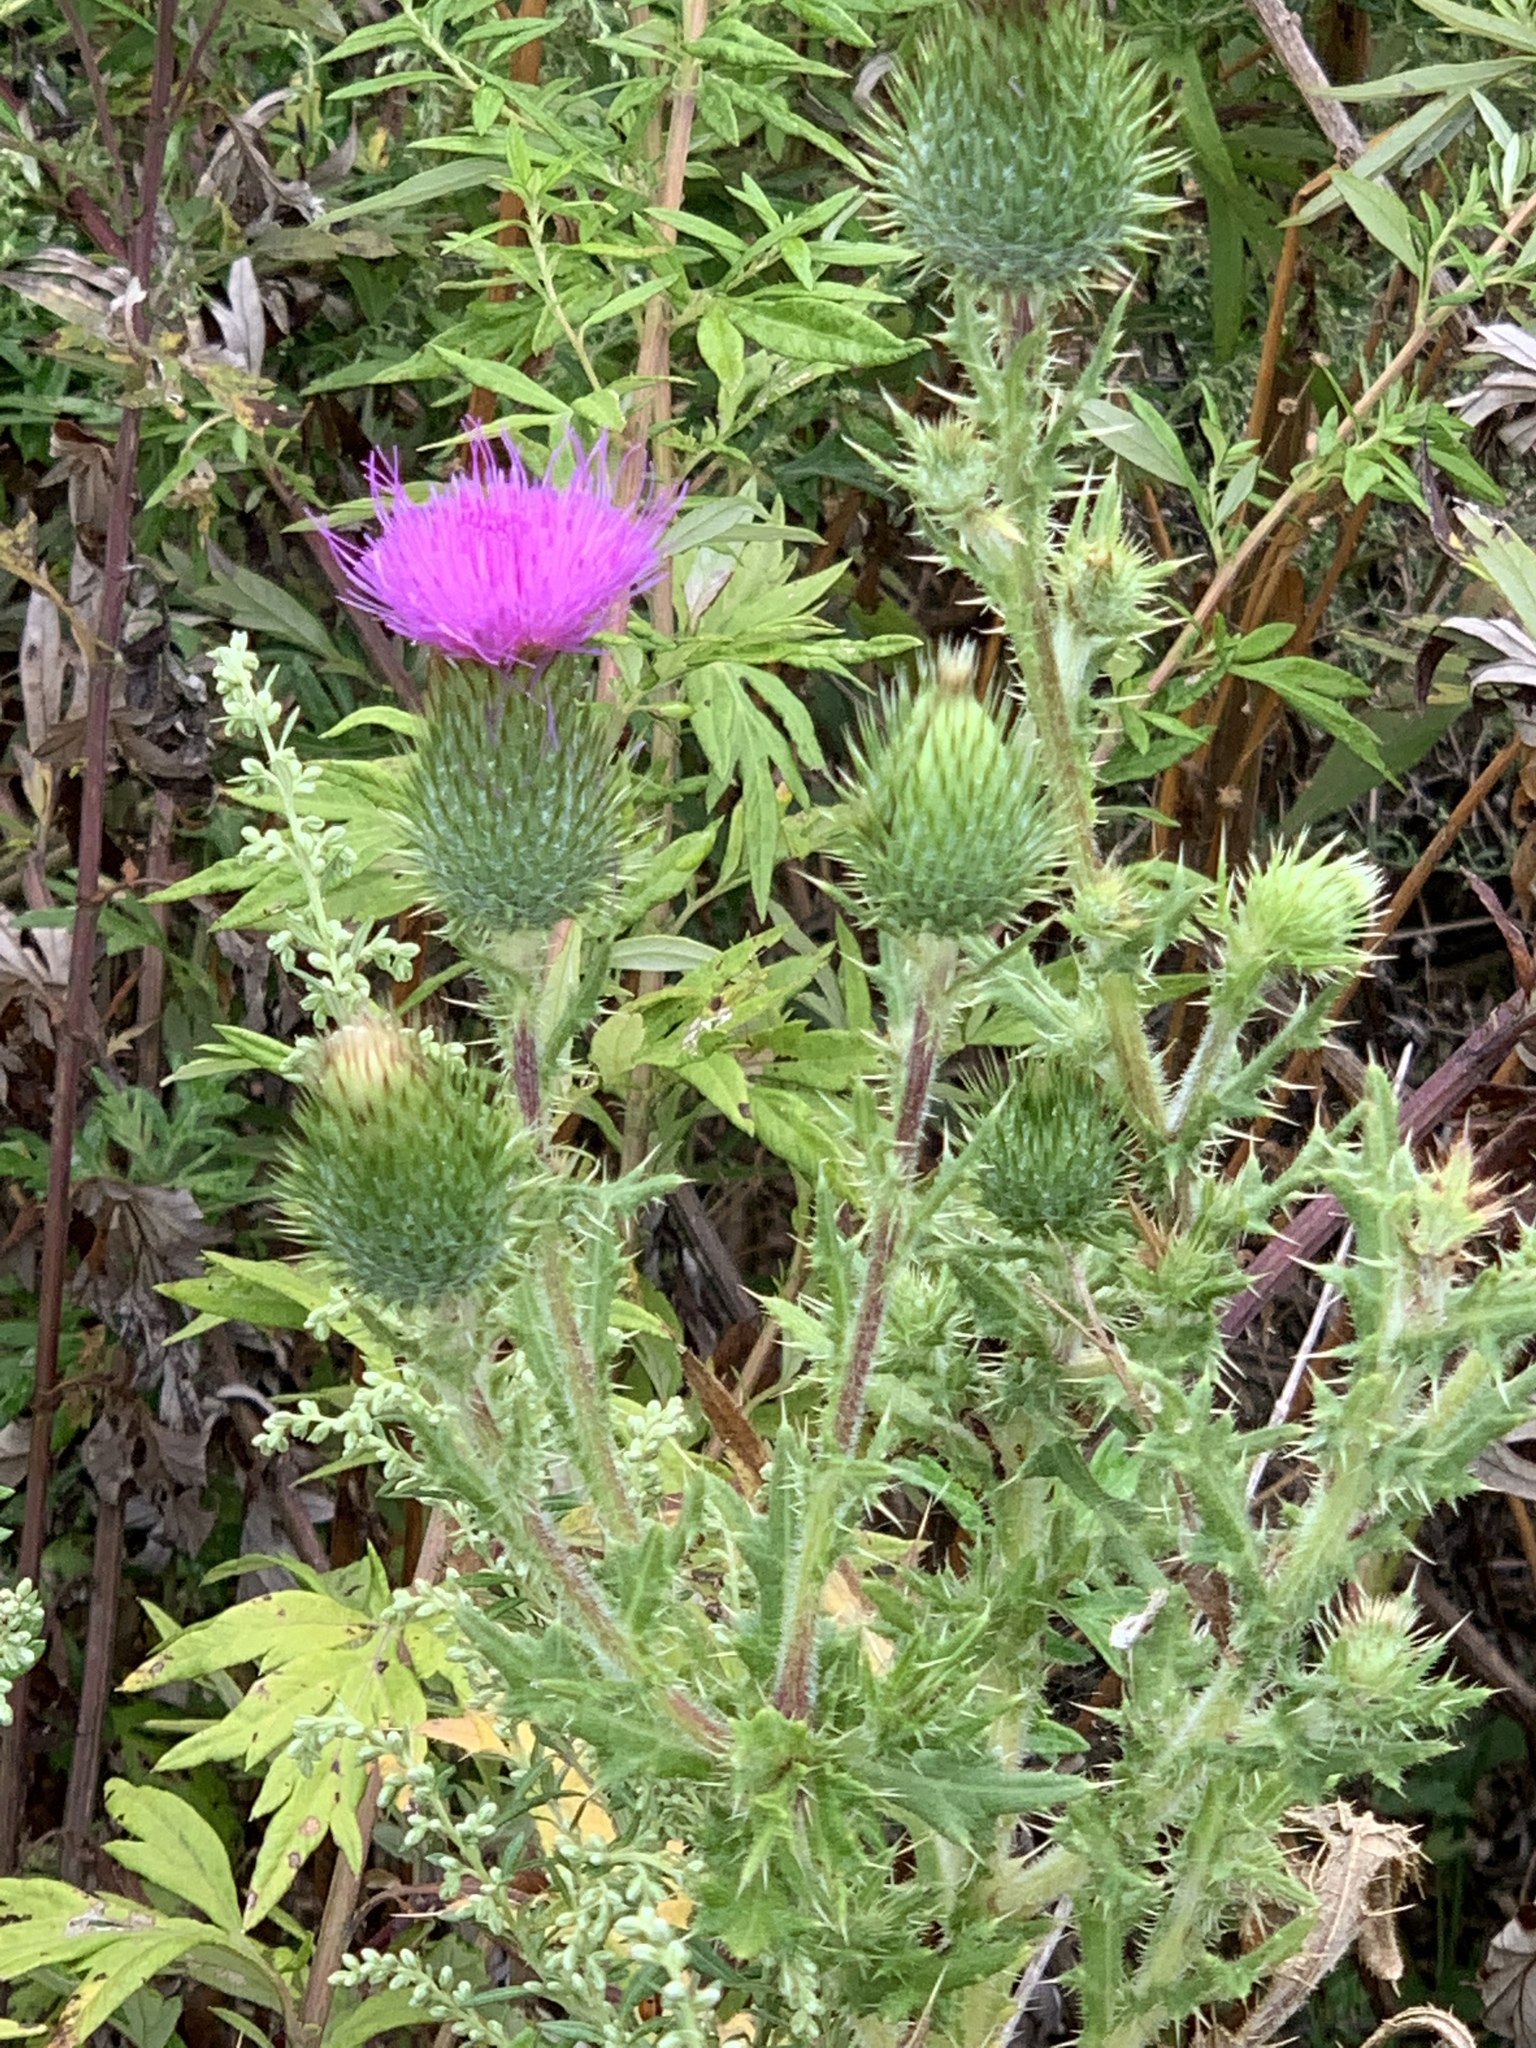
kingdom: Plantae
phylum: Tracheophyta
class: Magnoliopsida
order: Asterales
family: Asteraceae
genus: Cirsium
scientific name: Cirsium vulgare
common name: Bull thistle
